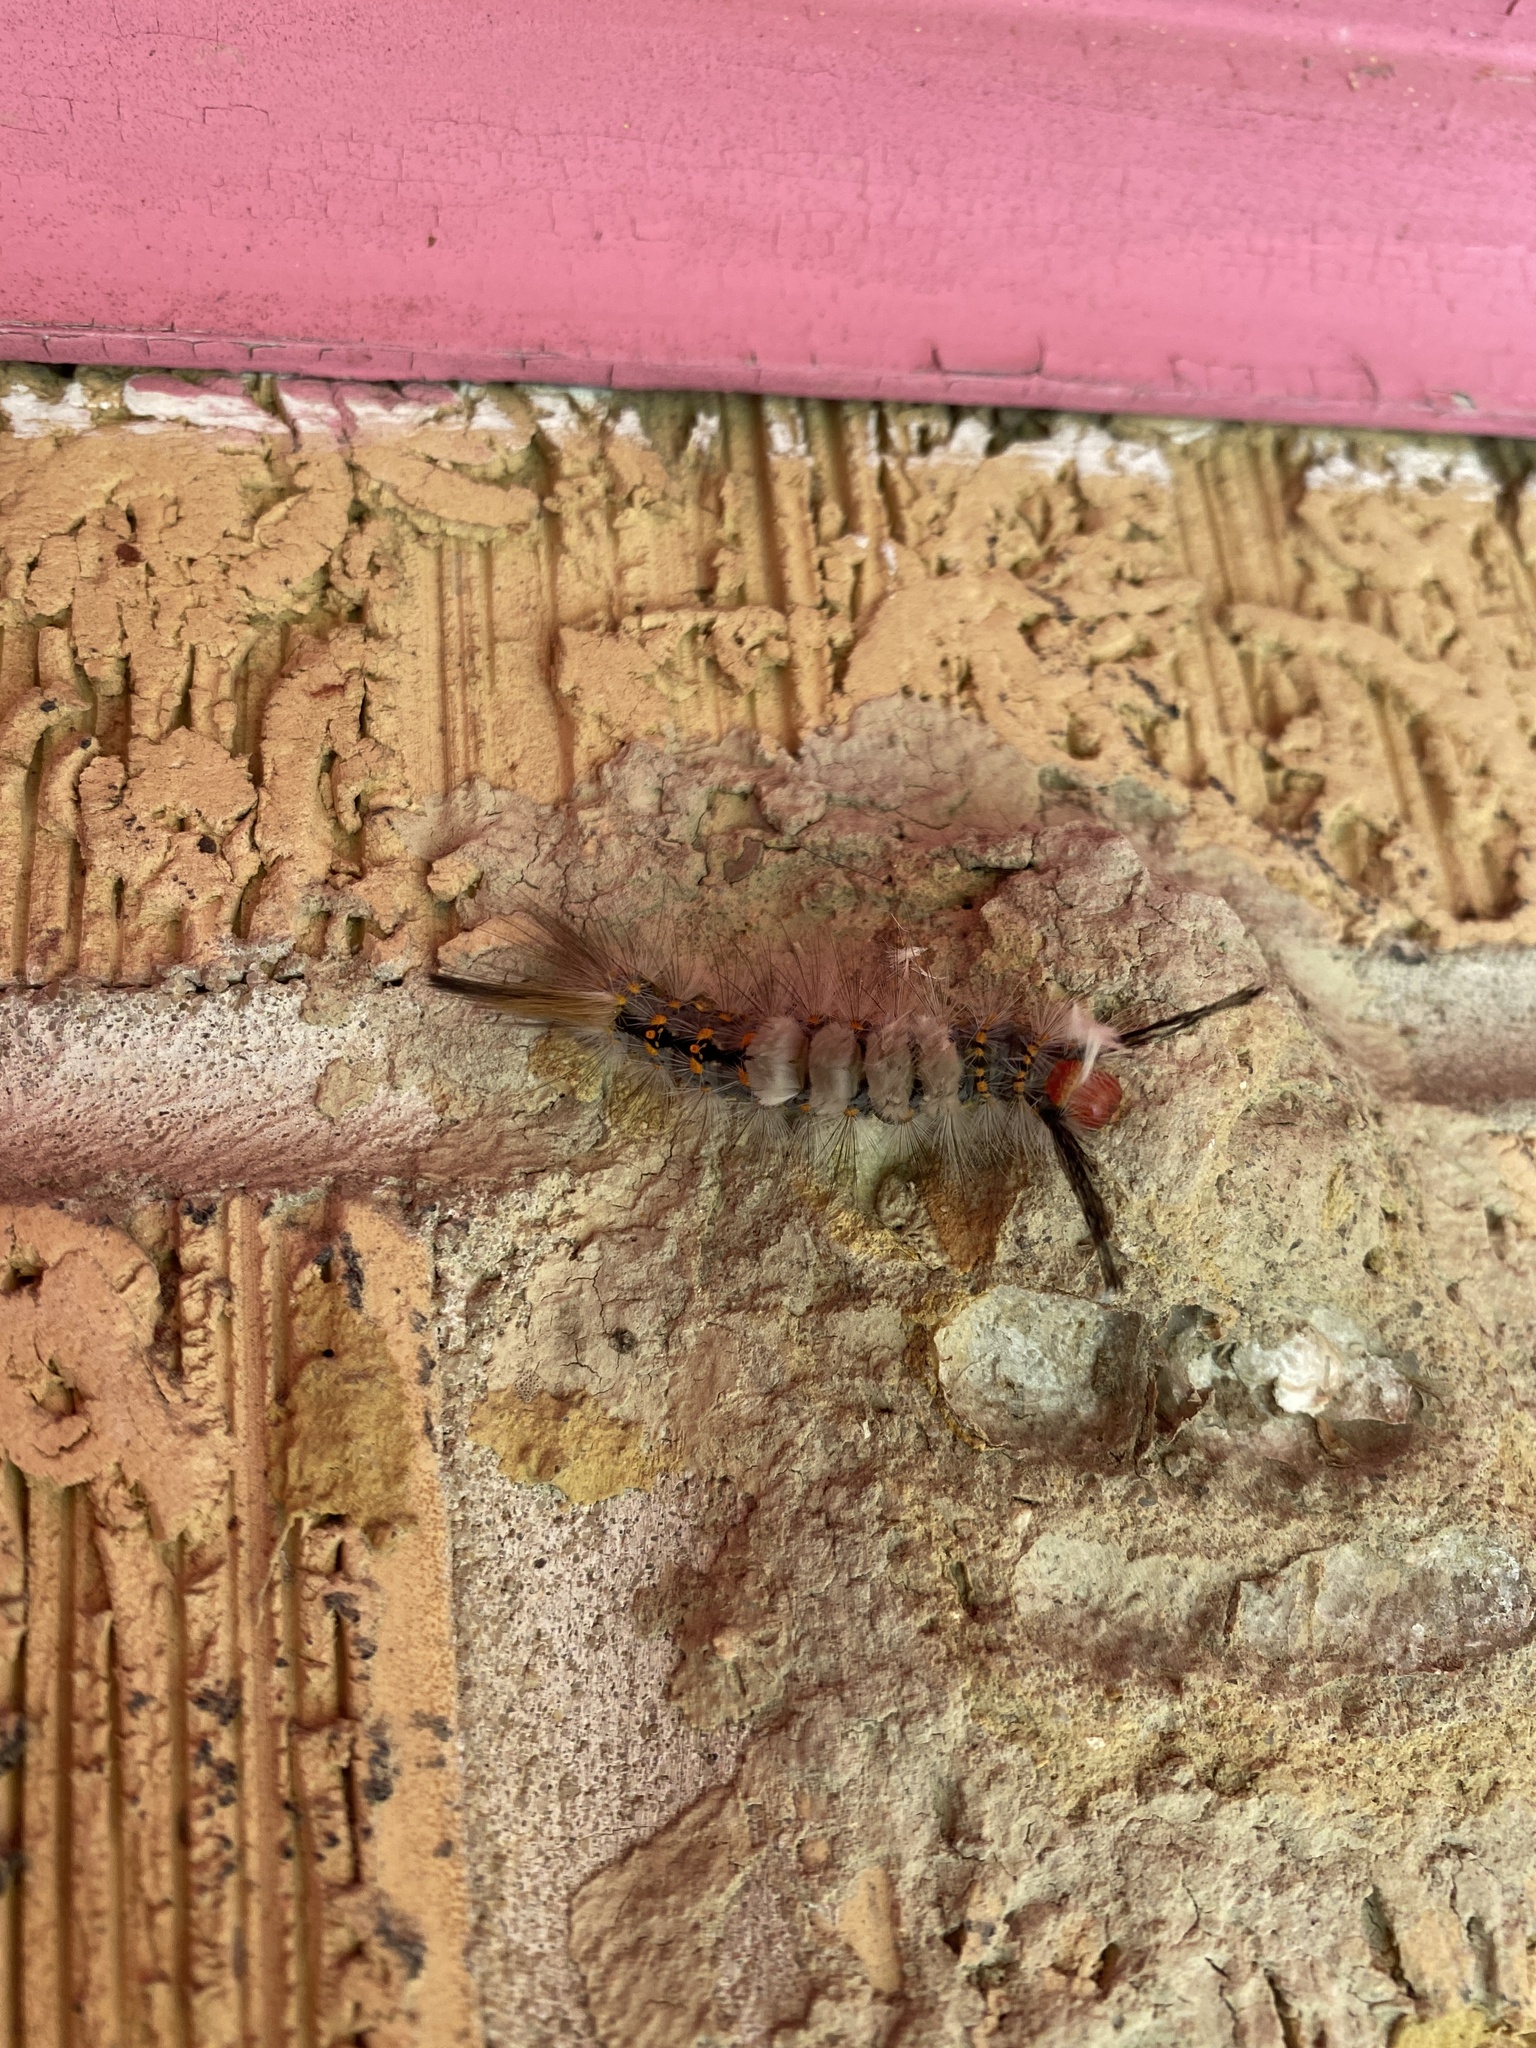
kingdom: Animalia
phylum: Arthropoda
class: Insecta
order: Lepidoptera
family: Erebidae
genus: Orgyia
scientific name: Orgyia detrita
